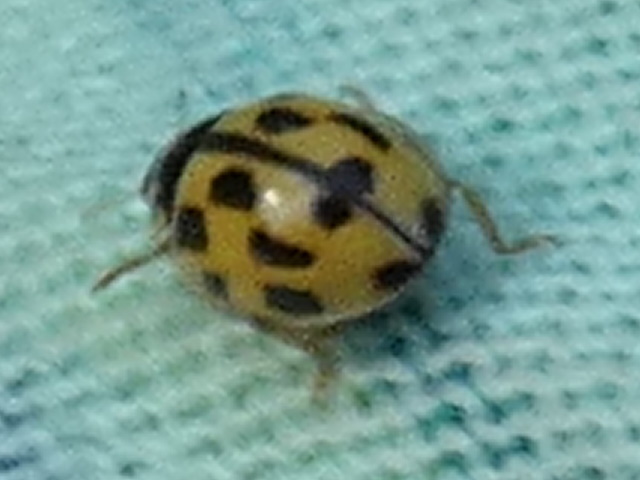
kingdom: Animalia
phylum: Arthropoda
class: Insecta
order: Coleoptera
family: Coccinellidae
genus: Propylaea
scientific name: Propylaea quatuordecimpunctata
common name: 14-spotted ladybird beetle
